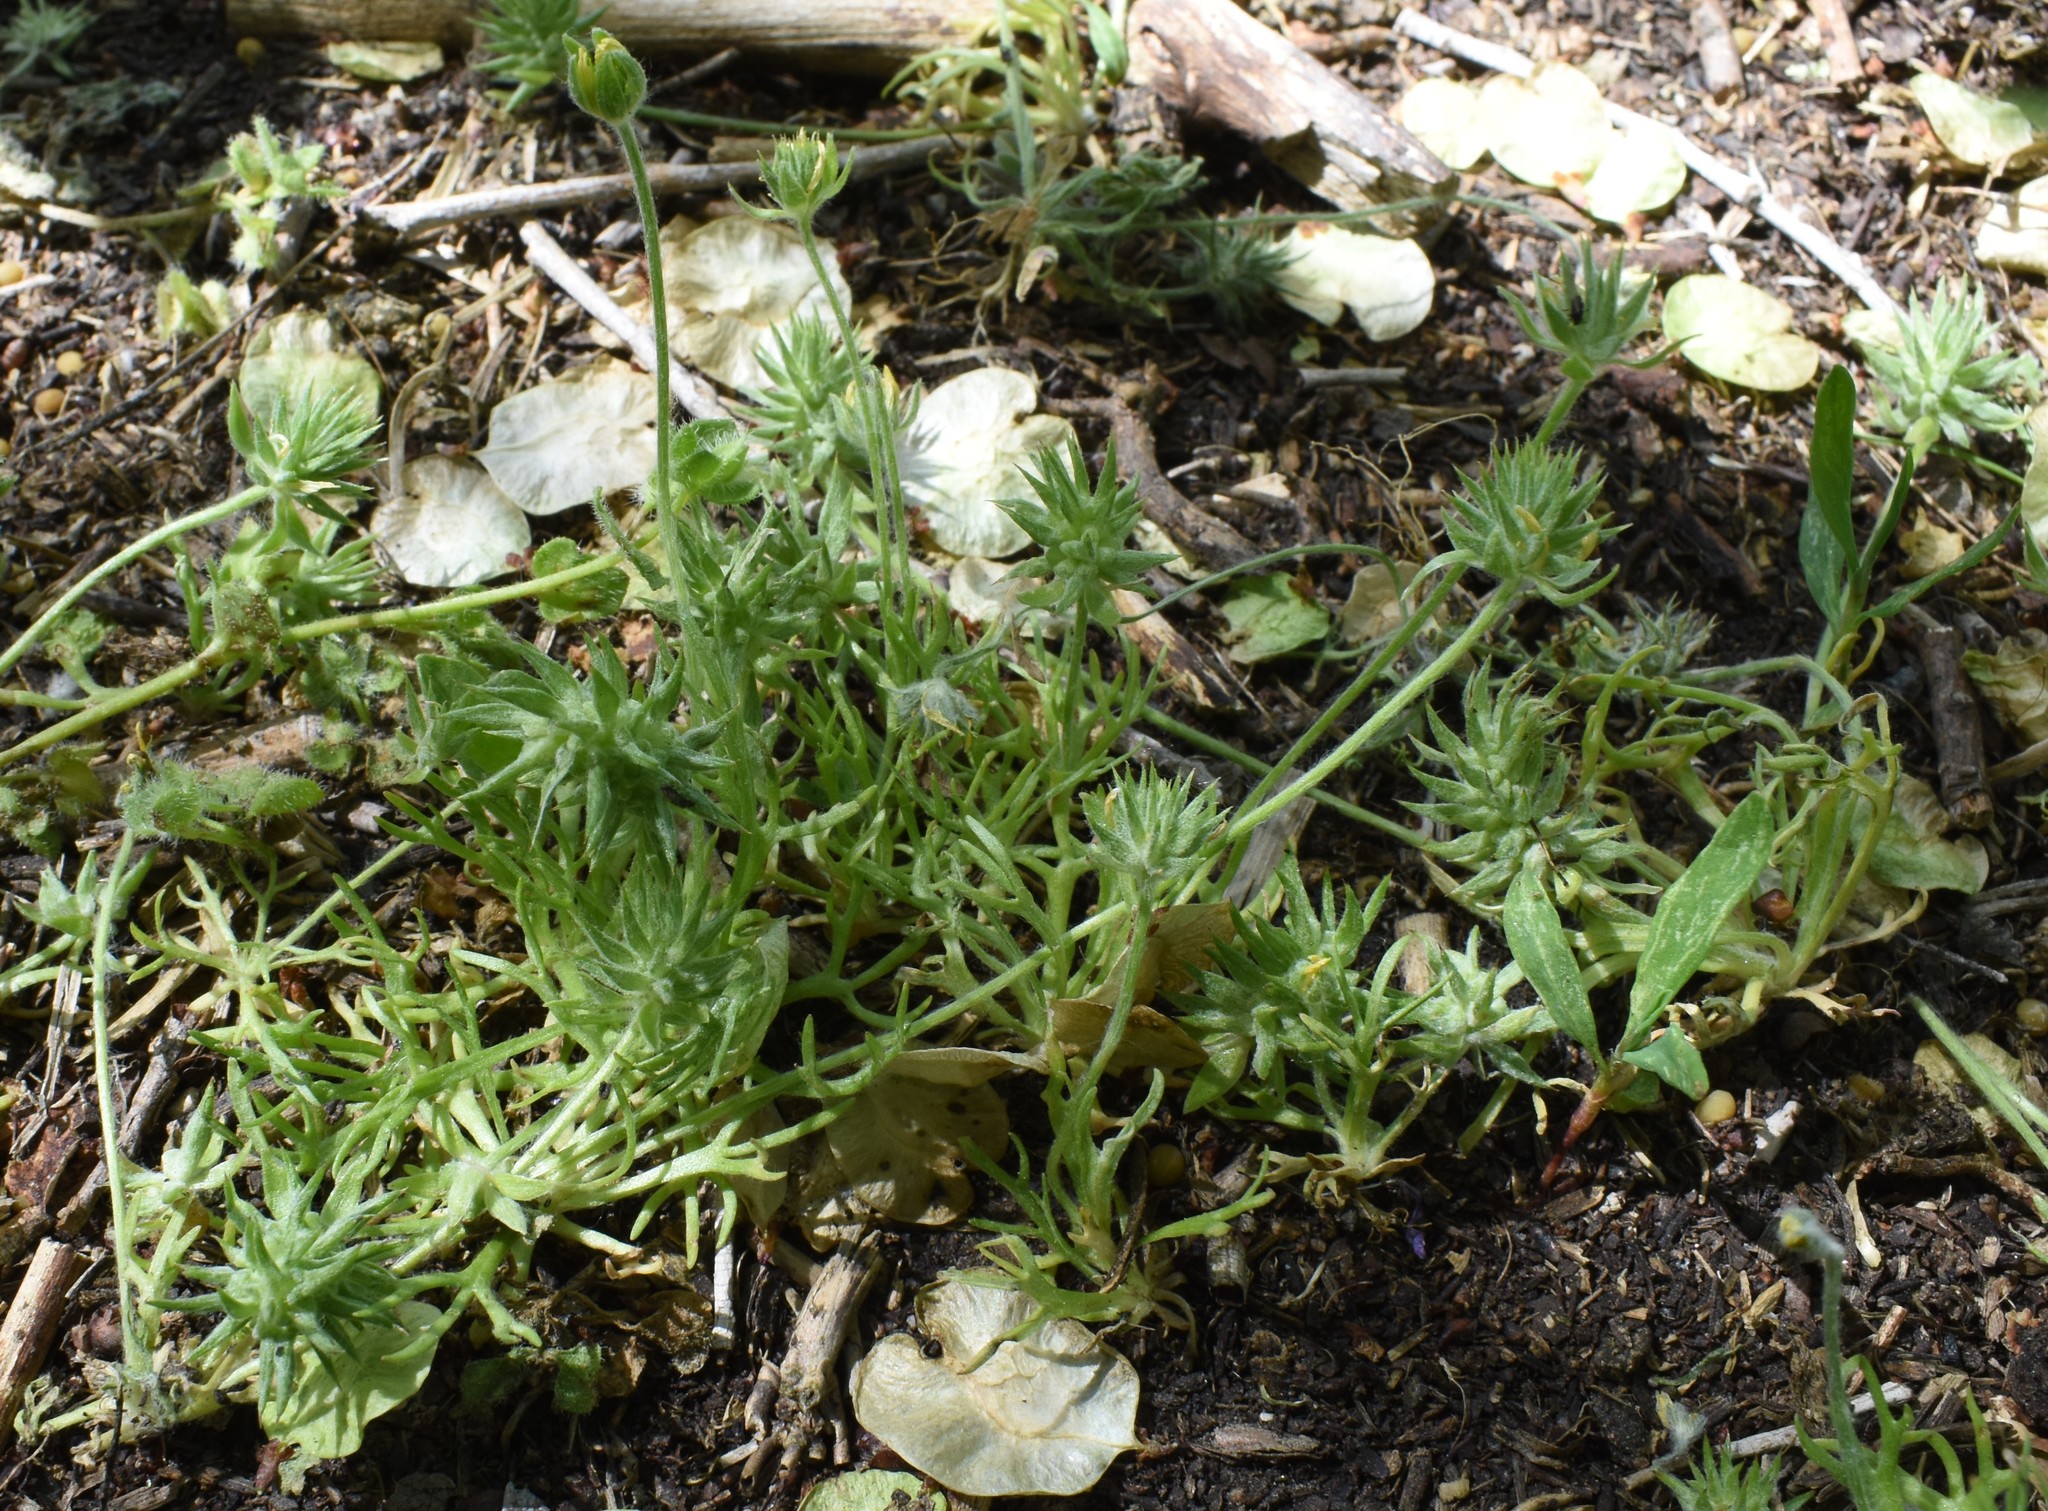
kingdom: Plantae
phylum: Tracheophyta
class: Magnoliopsida
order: Ranunculales
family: Ranunculaceae
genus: Ceratocephala
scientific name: Ceratocephala orthoceras
